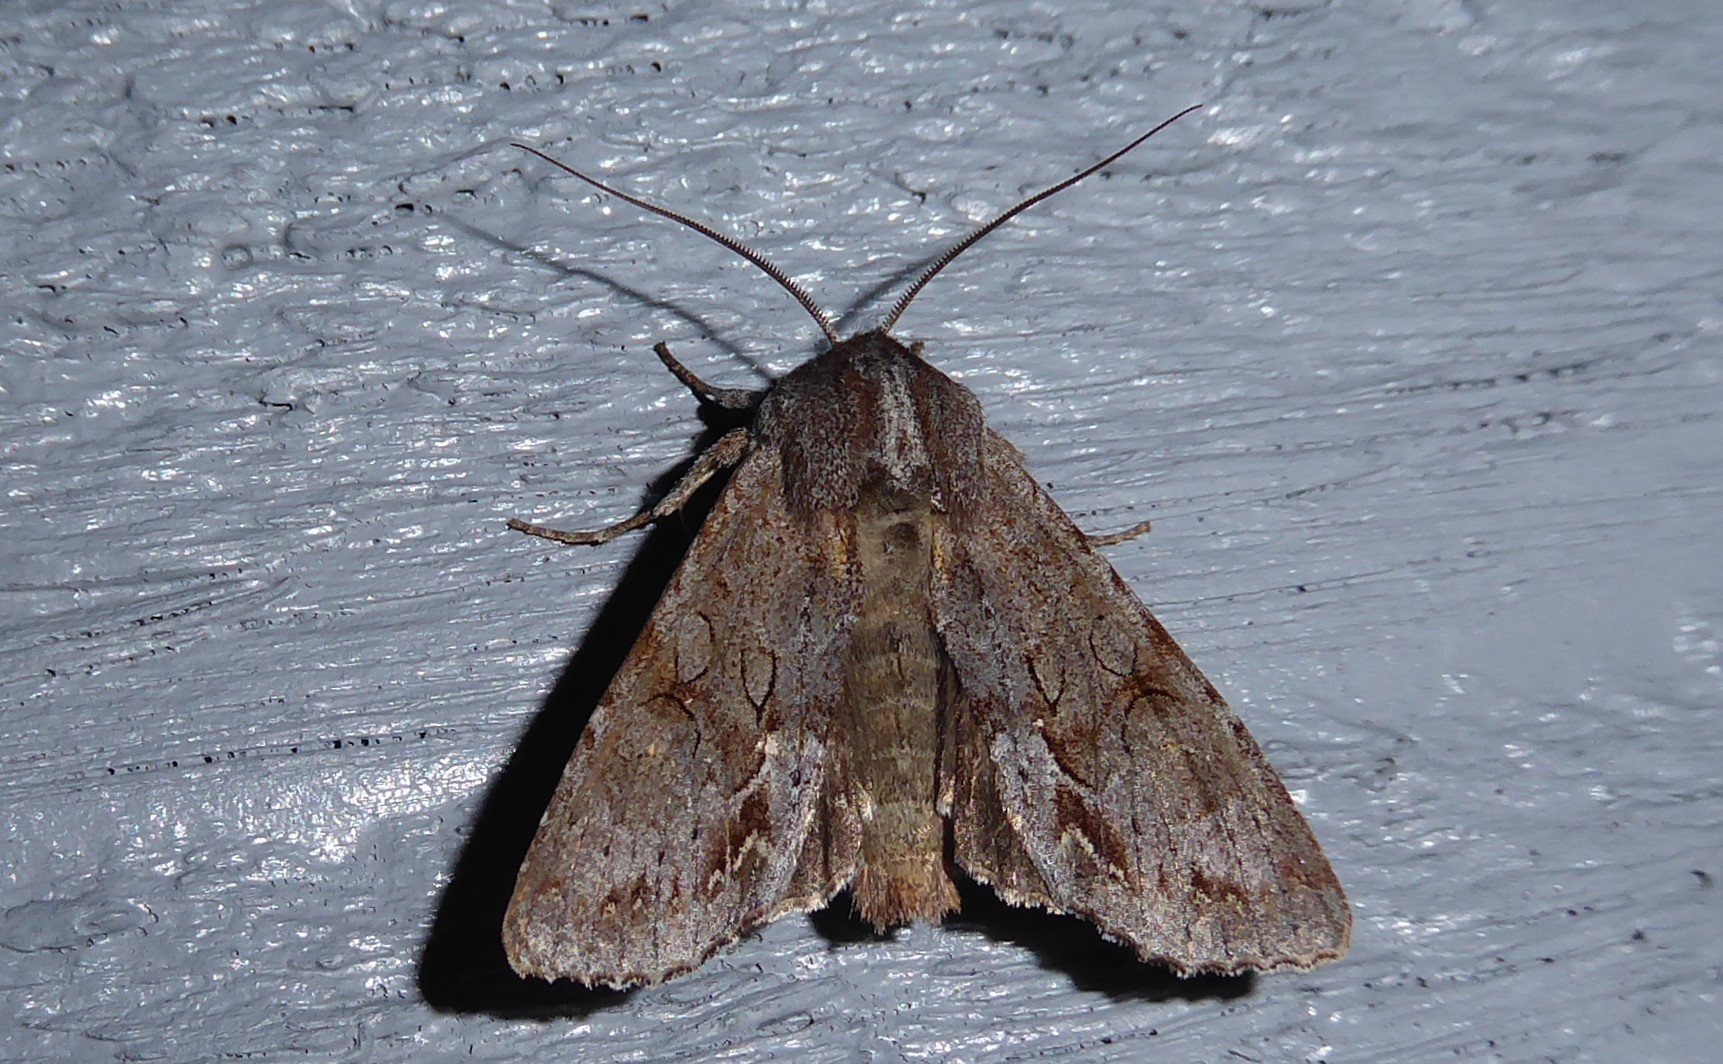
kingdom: Animalia
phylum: Arthropoda
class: Insecta
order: Lepidoptera
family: Noctuidae
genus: Ichneutica
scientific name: Ichneutica
